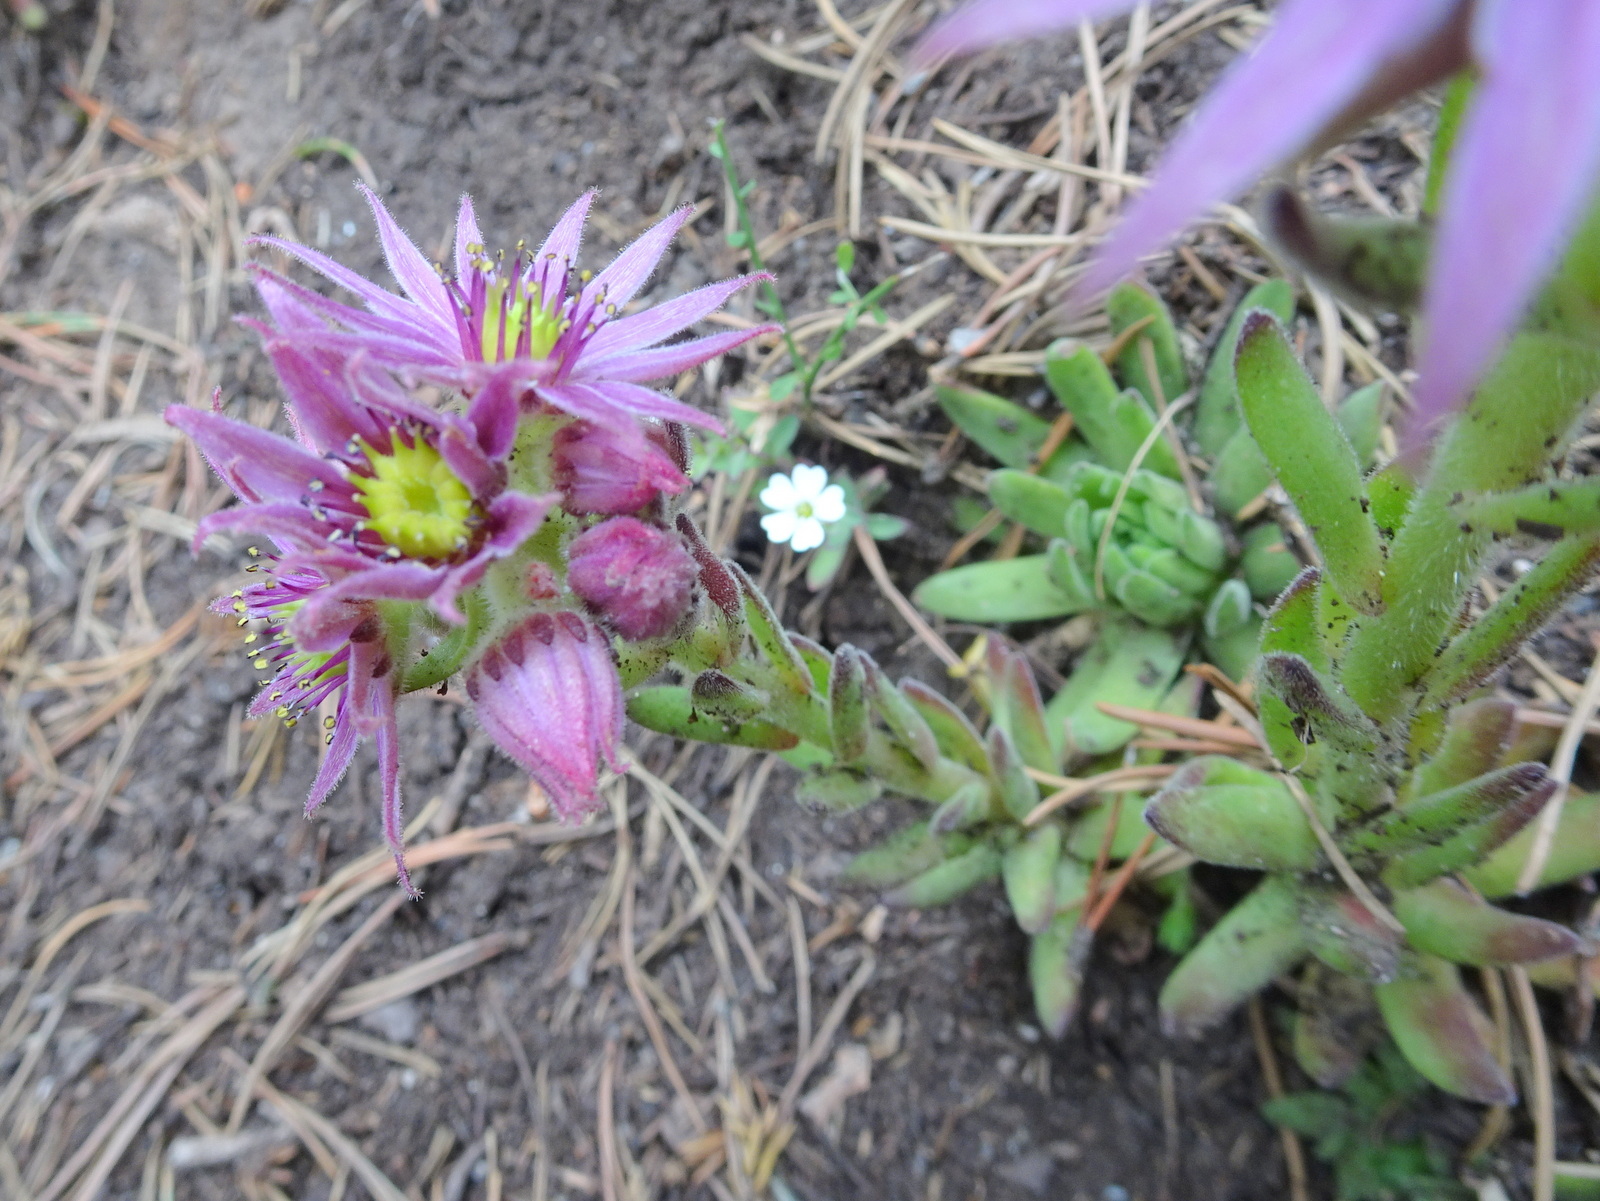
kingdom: Plantae
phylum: Tracheophyta
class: Magnoliopsida
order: Saxifragales
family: Crassulaceae
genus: Sempervivum
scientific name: Sempervivum montanum
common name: Mountain house-leek
